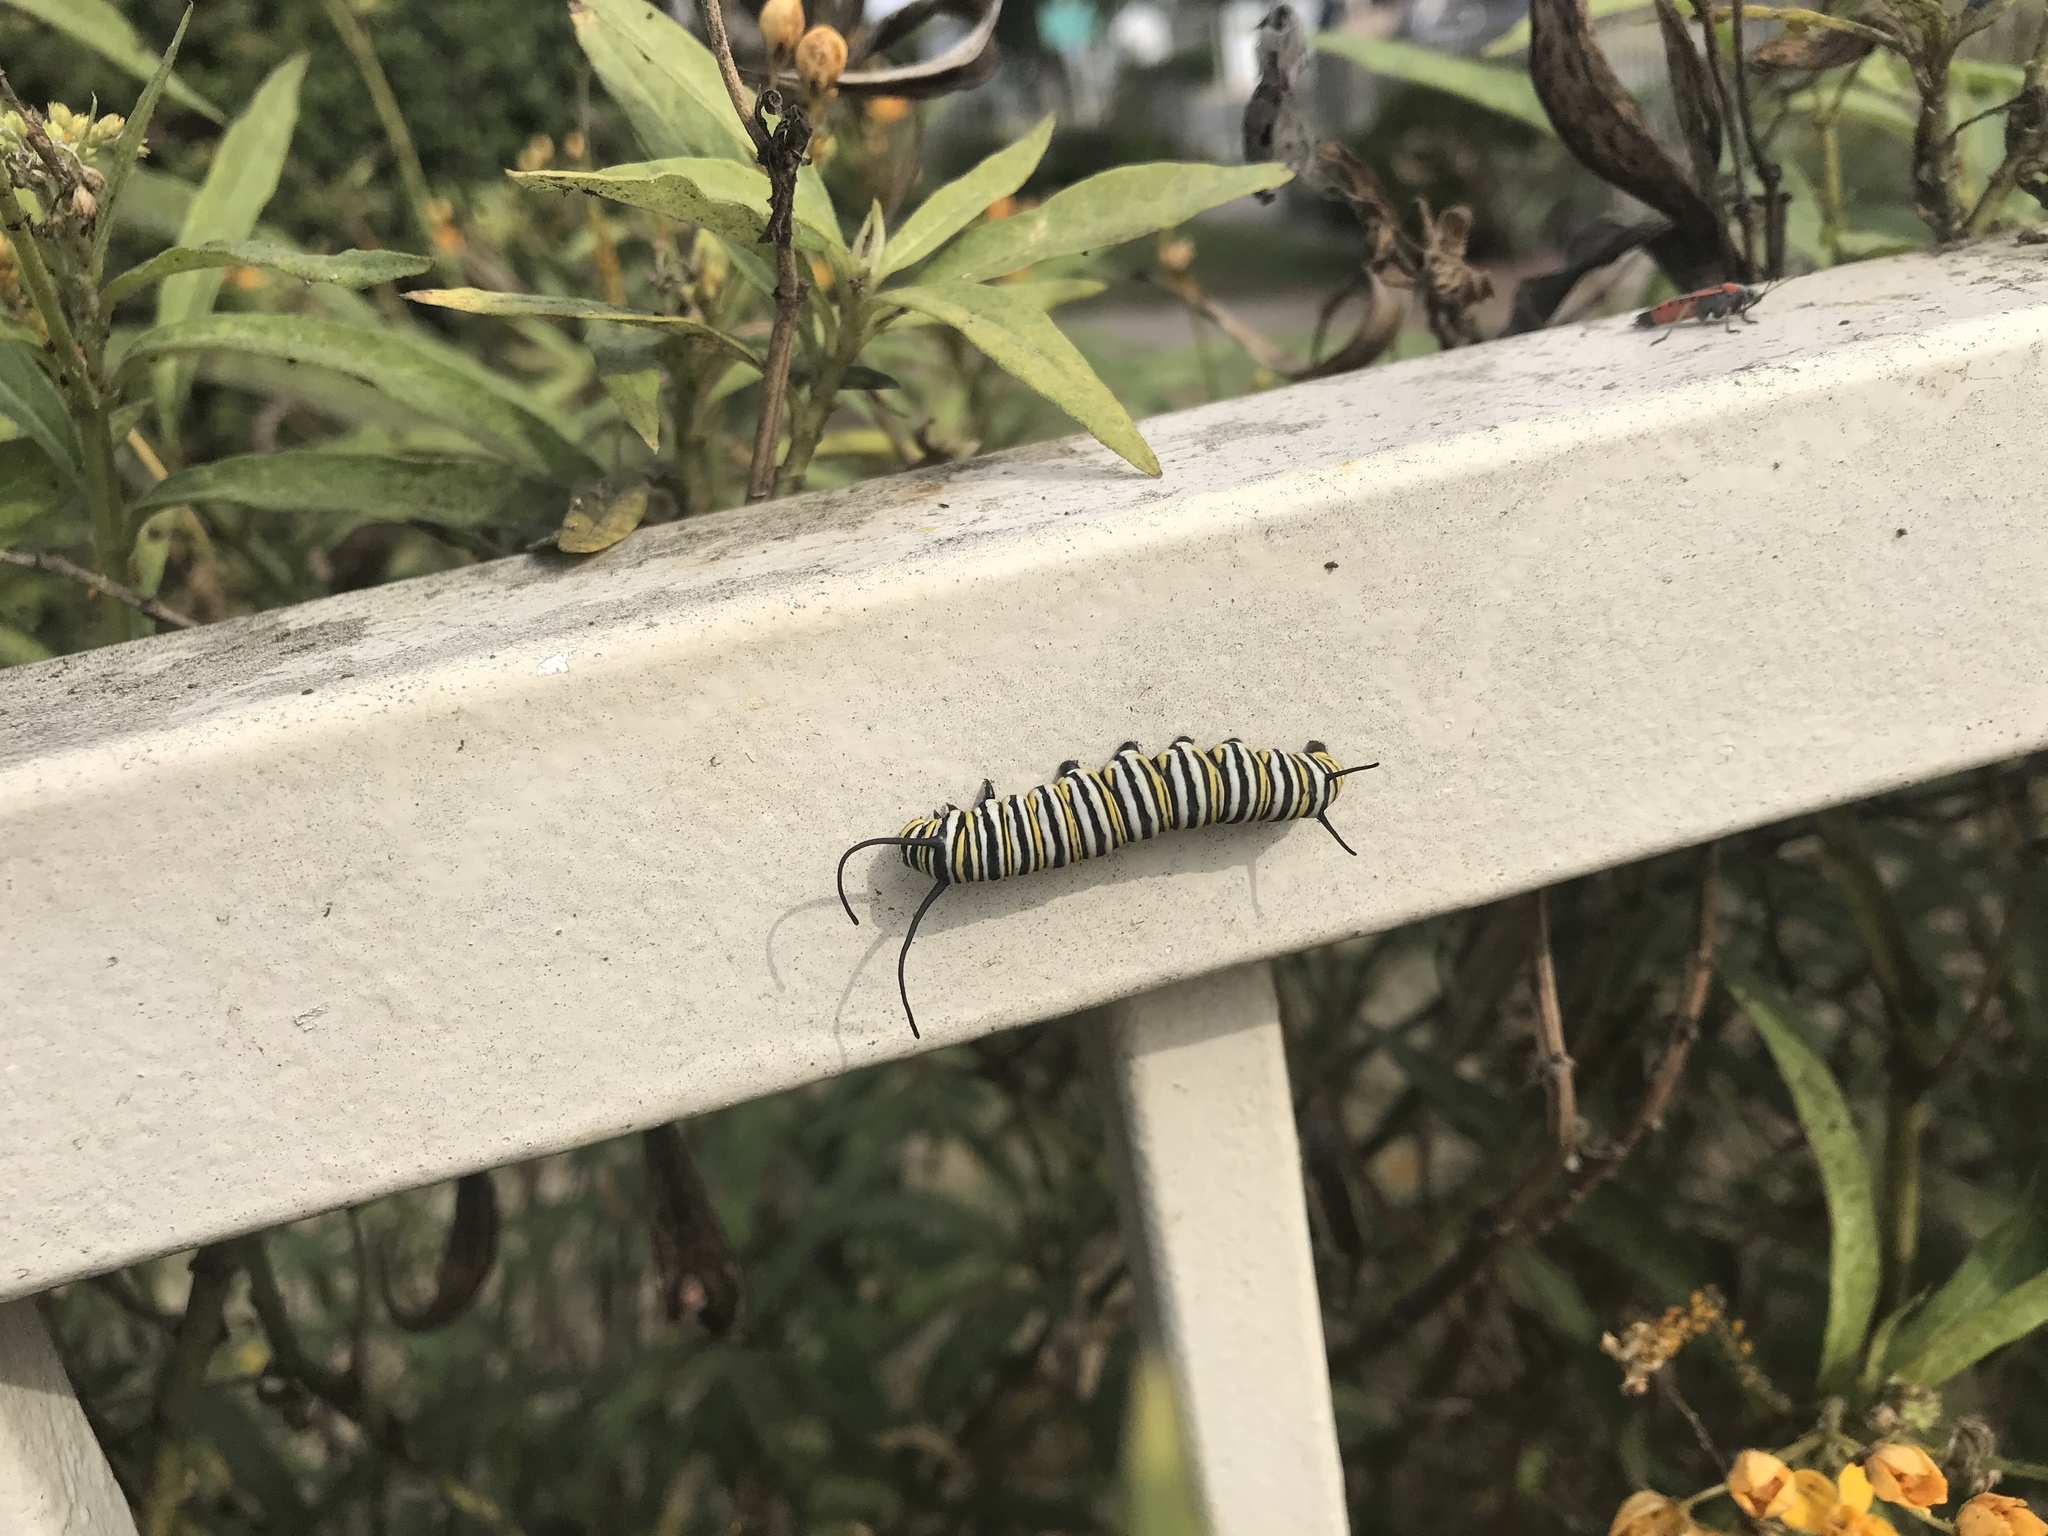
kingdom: Animalia
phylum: Arthropoda
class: Insecta
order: Lepidoptera
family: Nymphalidae
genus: Danaus
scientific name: Danaus plexippus
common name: Monarch
